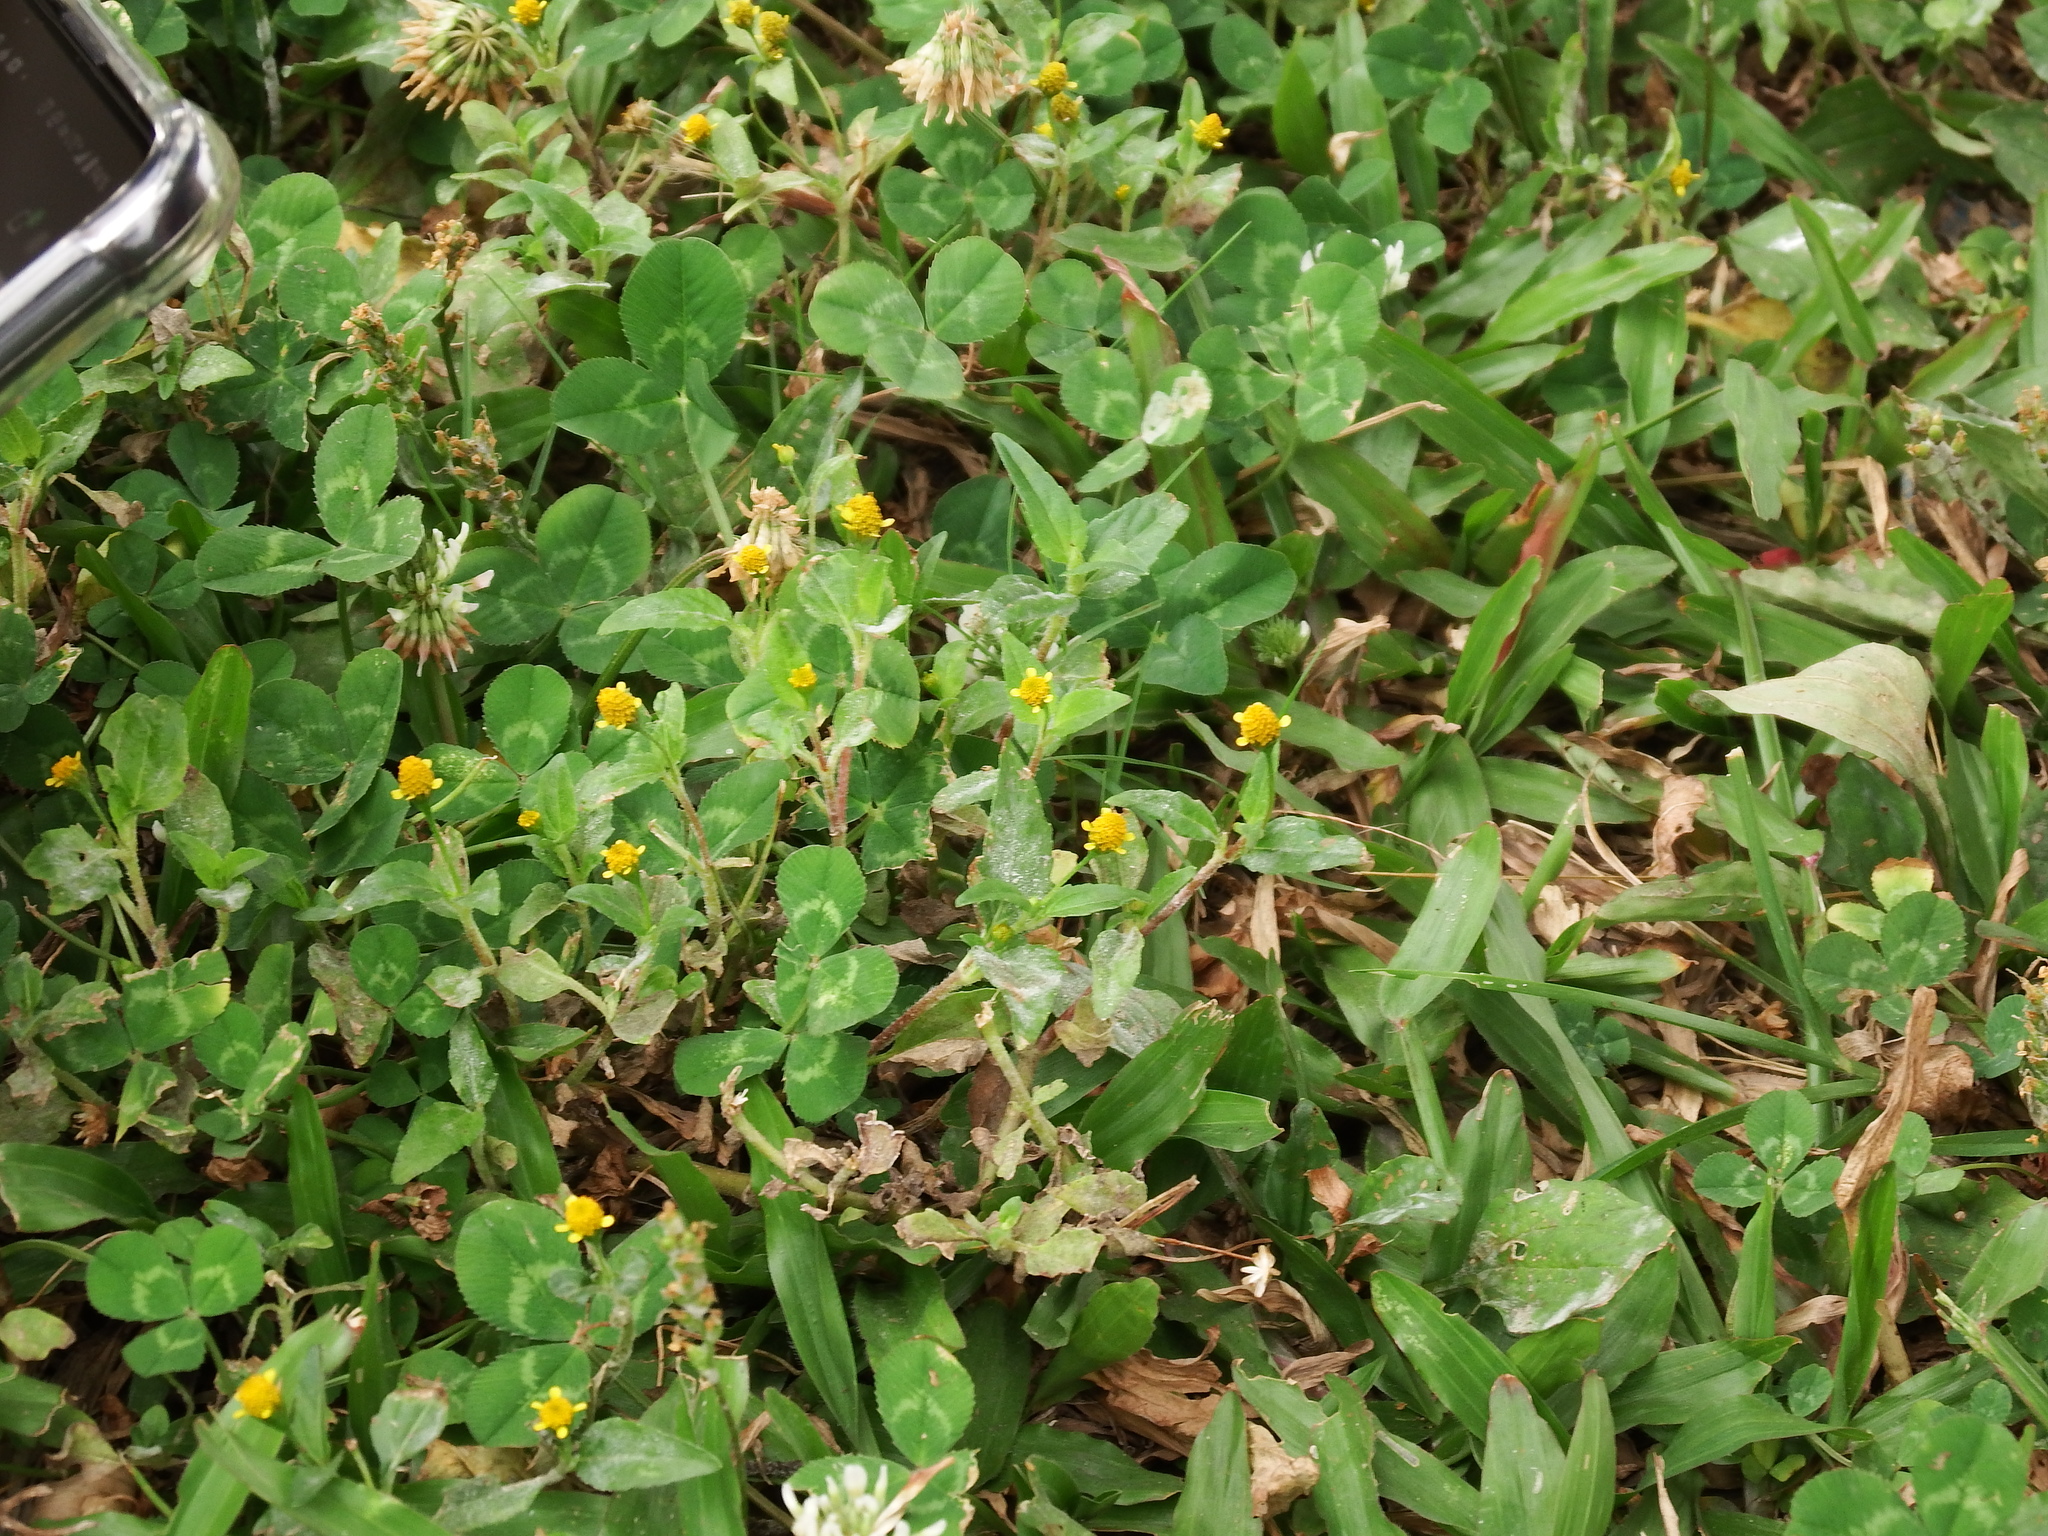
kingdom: Plantae
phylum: Tracheophyta
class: Magnoliopsida
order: Asterales
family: Asteraceae
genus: Acmella
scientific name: Acmella uliginosa
